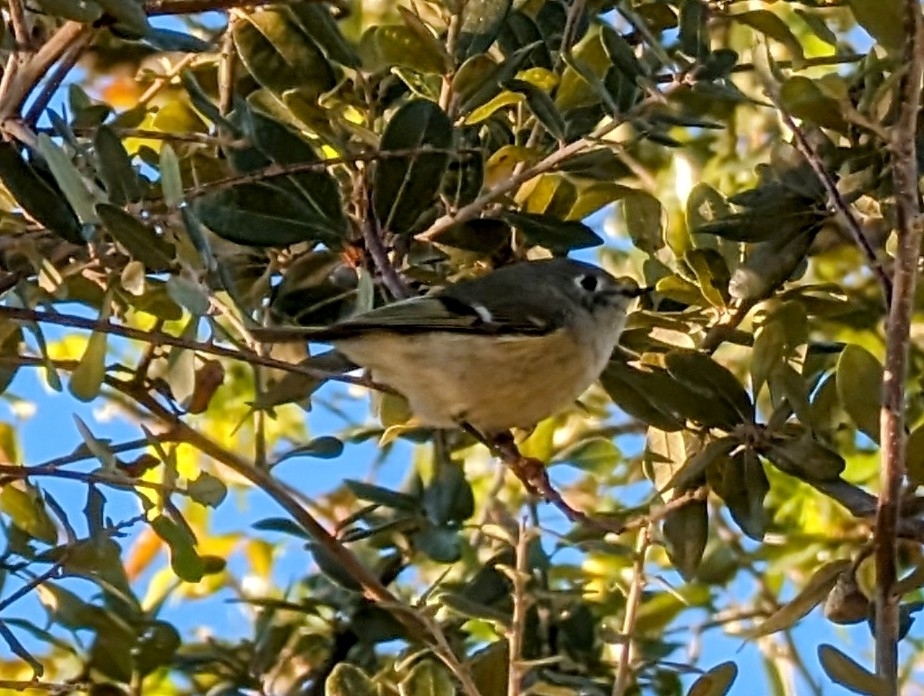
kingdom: Animalia
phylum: Chordata
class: Aves
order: Passeriformes
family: Regulidae
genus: Regulus
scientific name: Regulus calendula
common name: Ruby-crowned kinglet
